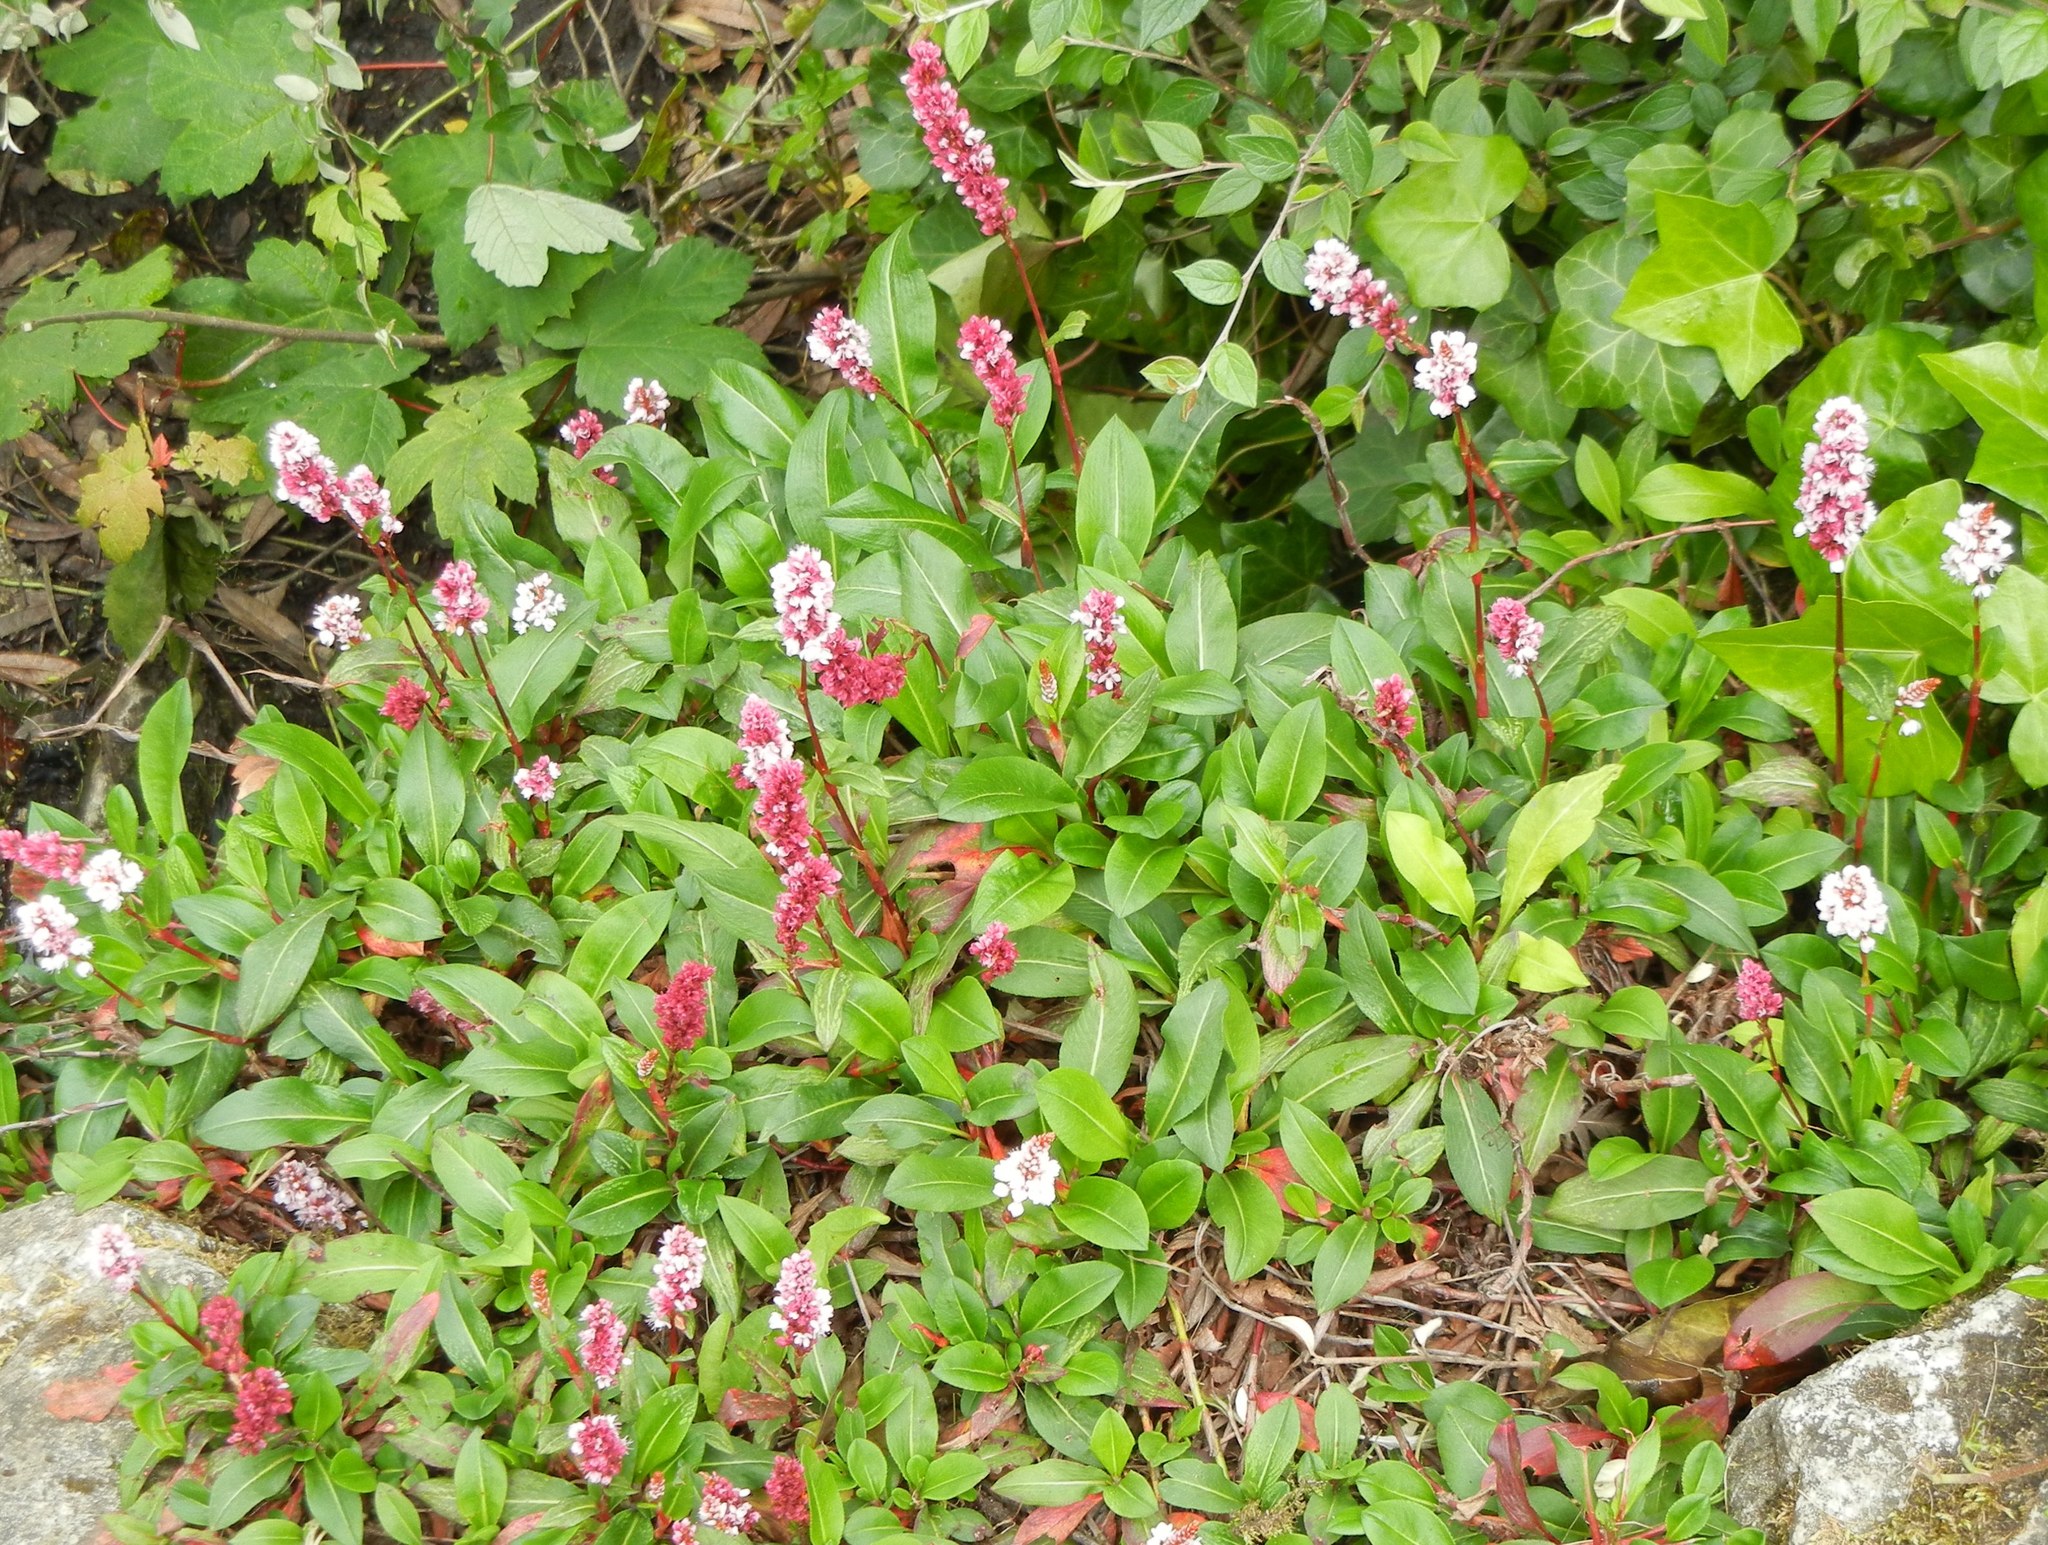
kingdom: Plantae
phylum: Tracheophyta
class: Magnoliopsida
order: Caryophyllales
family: Polygonaceae
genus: Bistorta
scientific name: Bistorta affinis
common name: Himalayan fleeceflower
